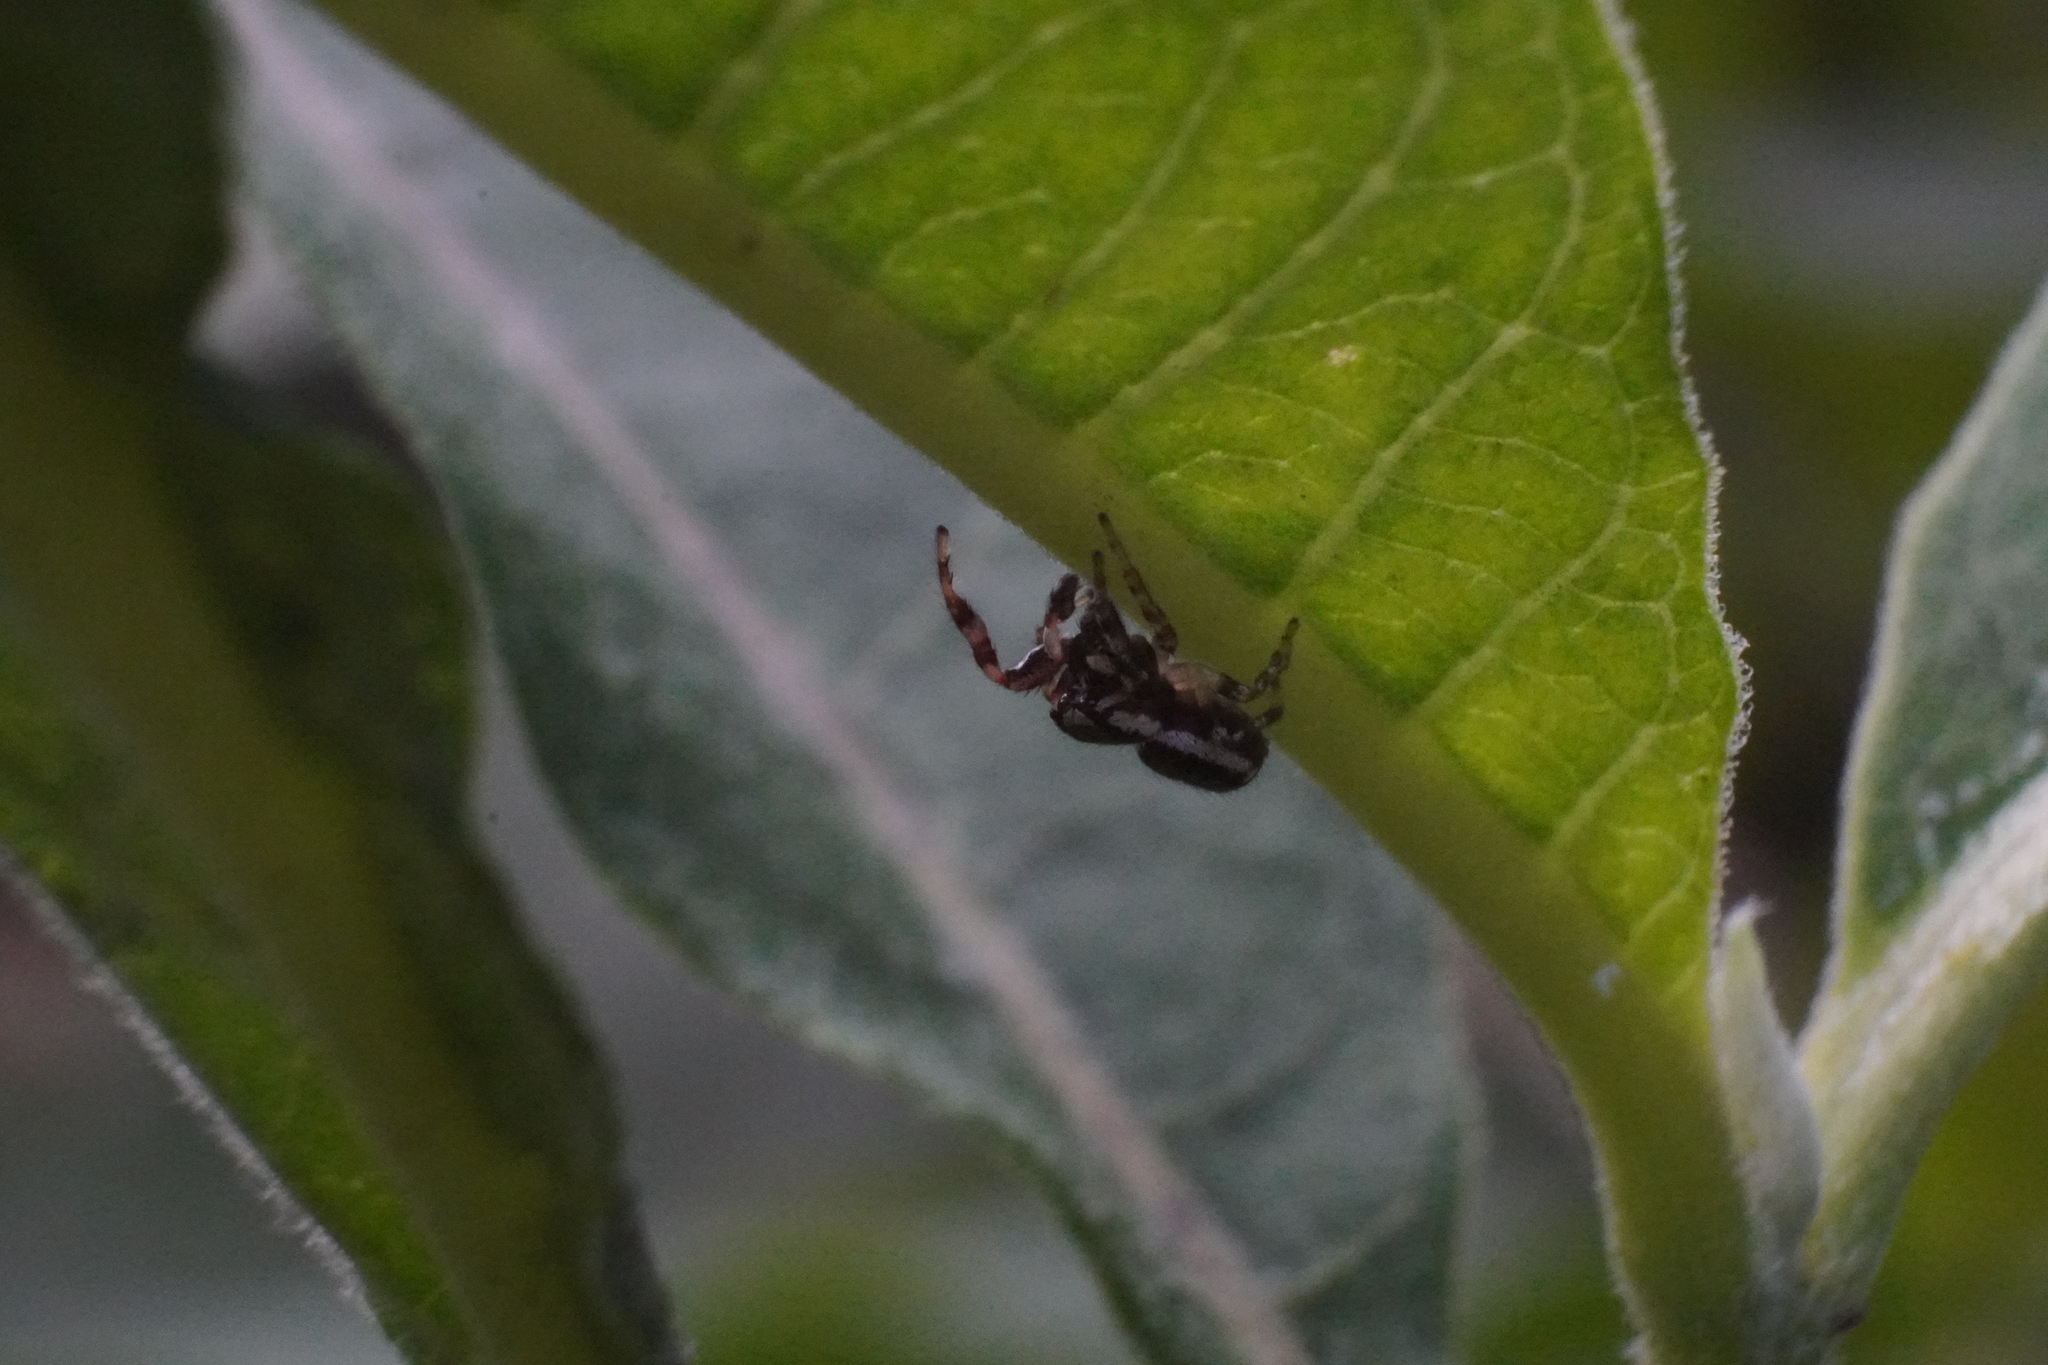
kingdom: Animalia
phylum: Arthropoda
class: Arachnida
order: Araneae
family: Salticidae
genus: Pelegrina
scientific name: Pelegrina proterva
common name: Common white-cheeked jumping spider
